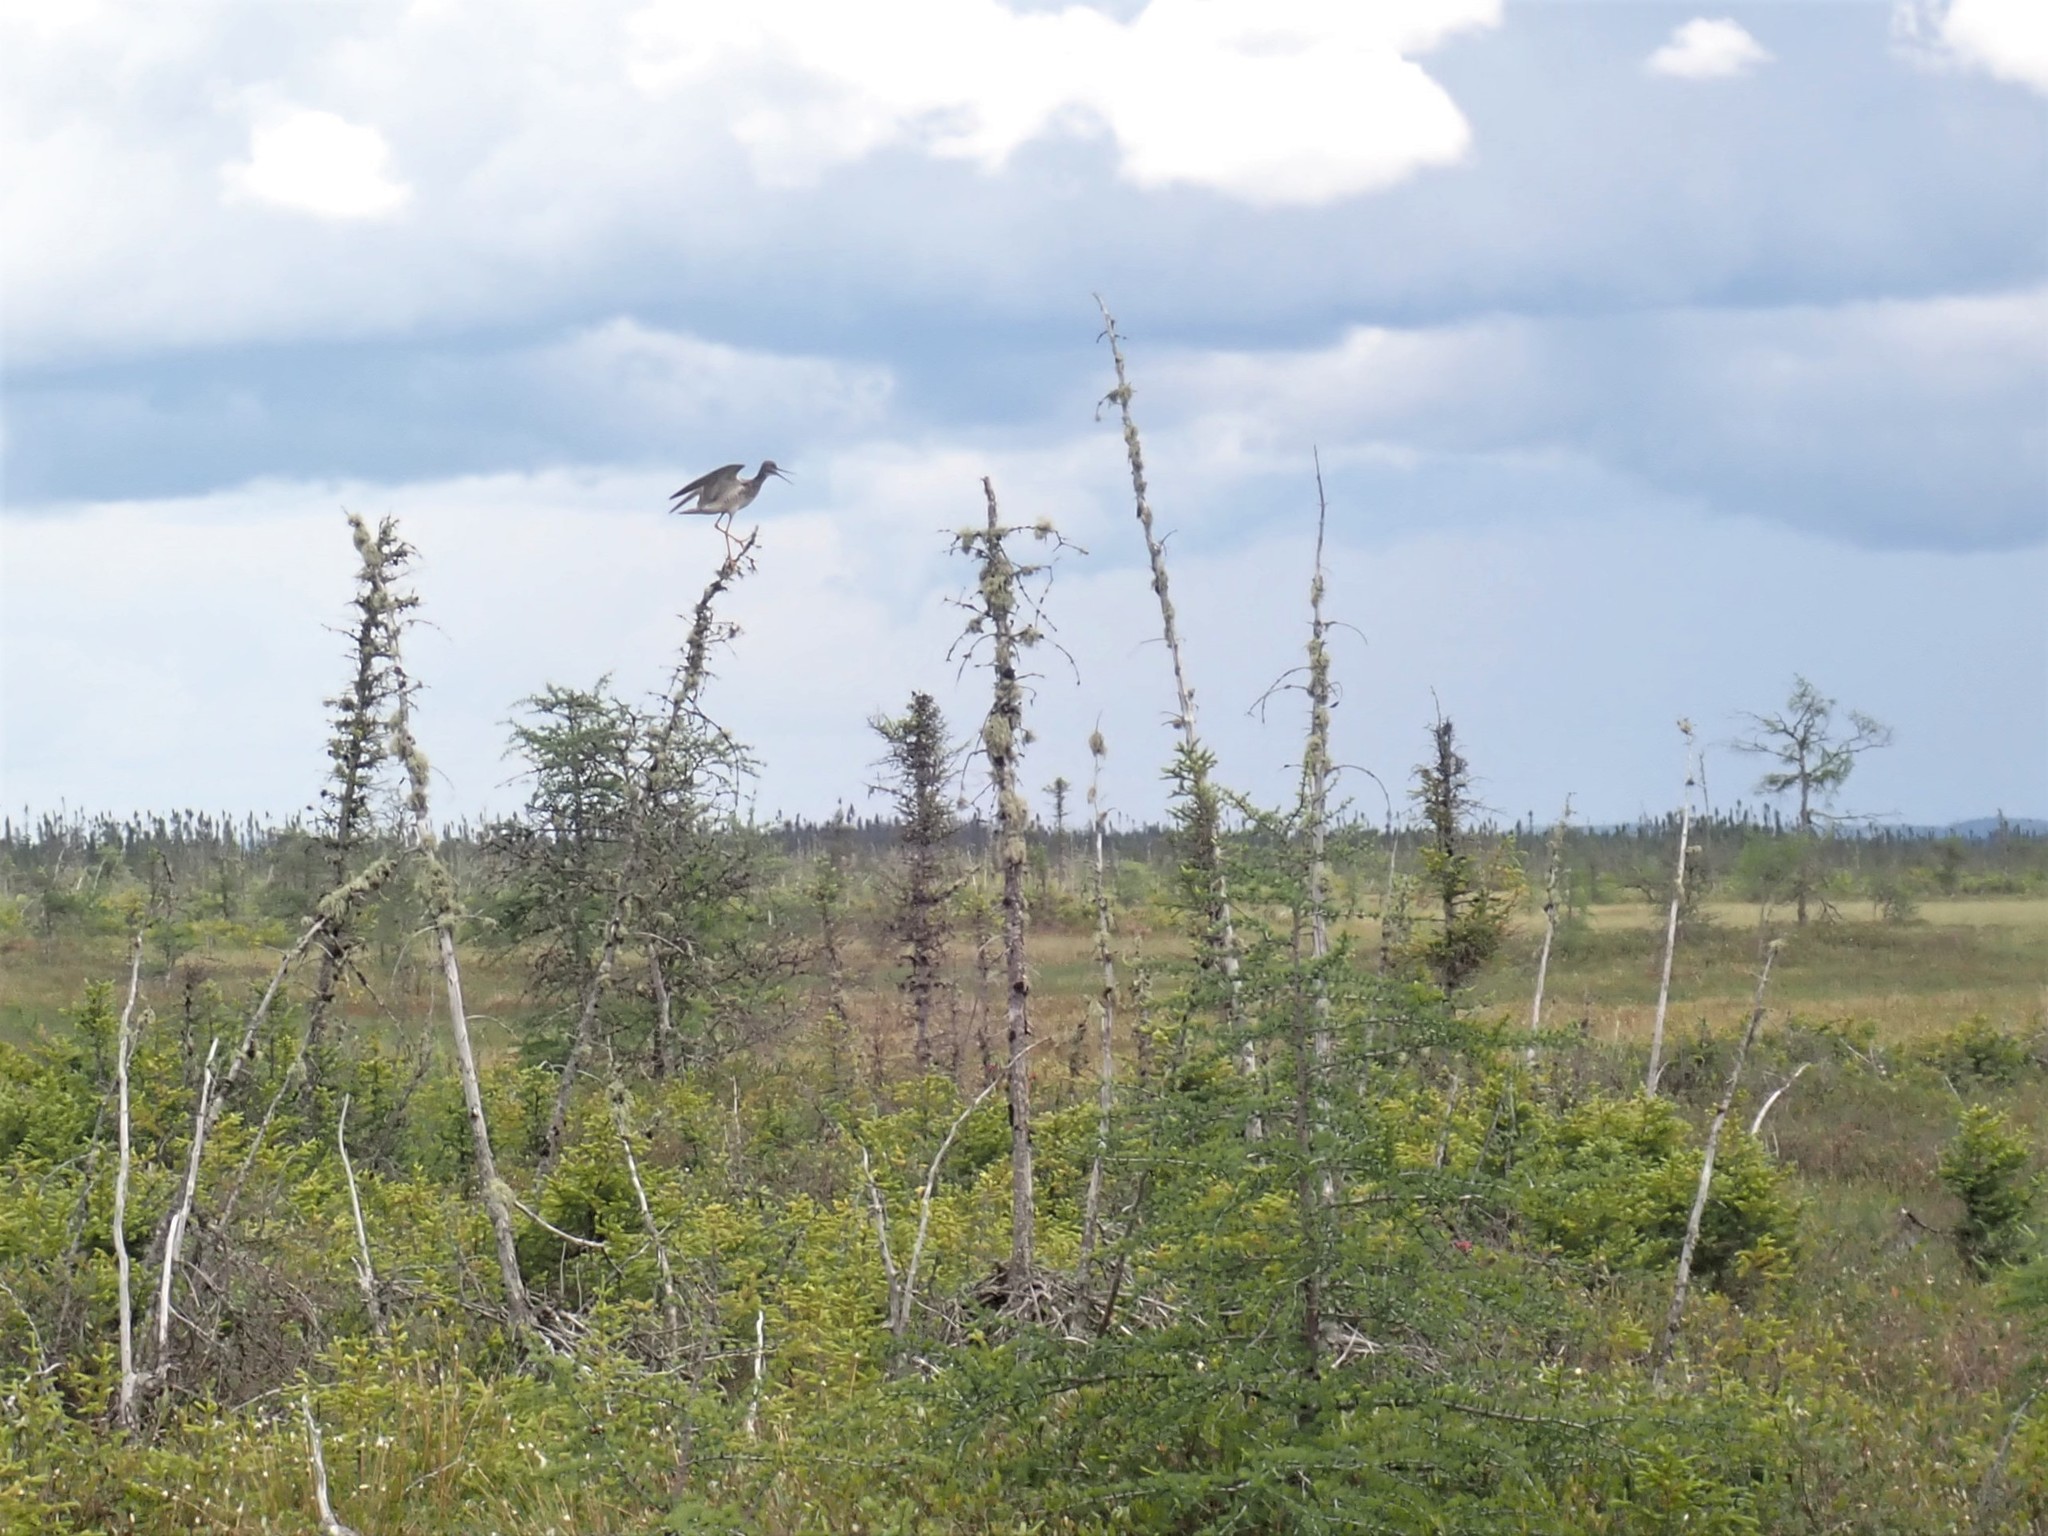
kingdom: Animalia
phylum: Chordata
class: Aves
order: Charadriiformes
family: Scolopacidae
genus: Tringa
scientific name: Tringa melanoleuca
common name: Greater yellowlegs
